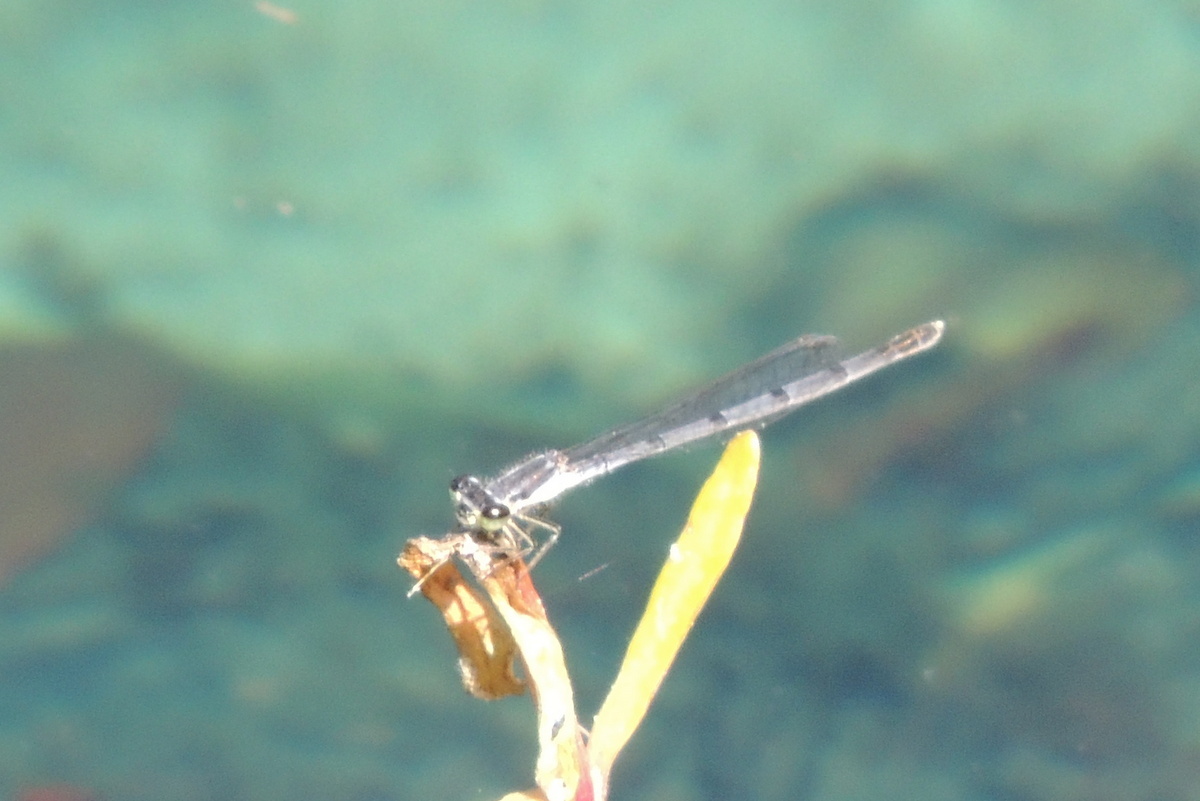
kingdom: Animalia
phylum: Arthropoda
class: Insecta
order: Odonata
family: Coenagrionidae
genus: Ischnura
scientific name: Ischnura posita
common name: Fragile forktail
